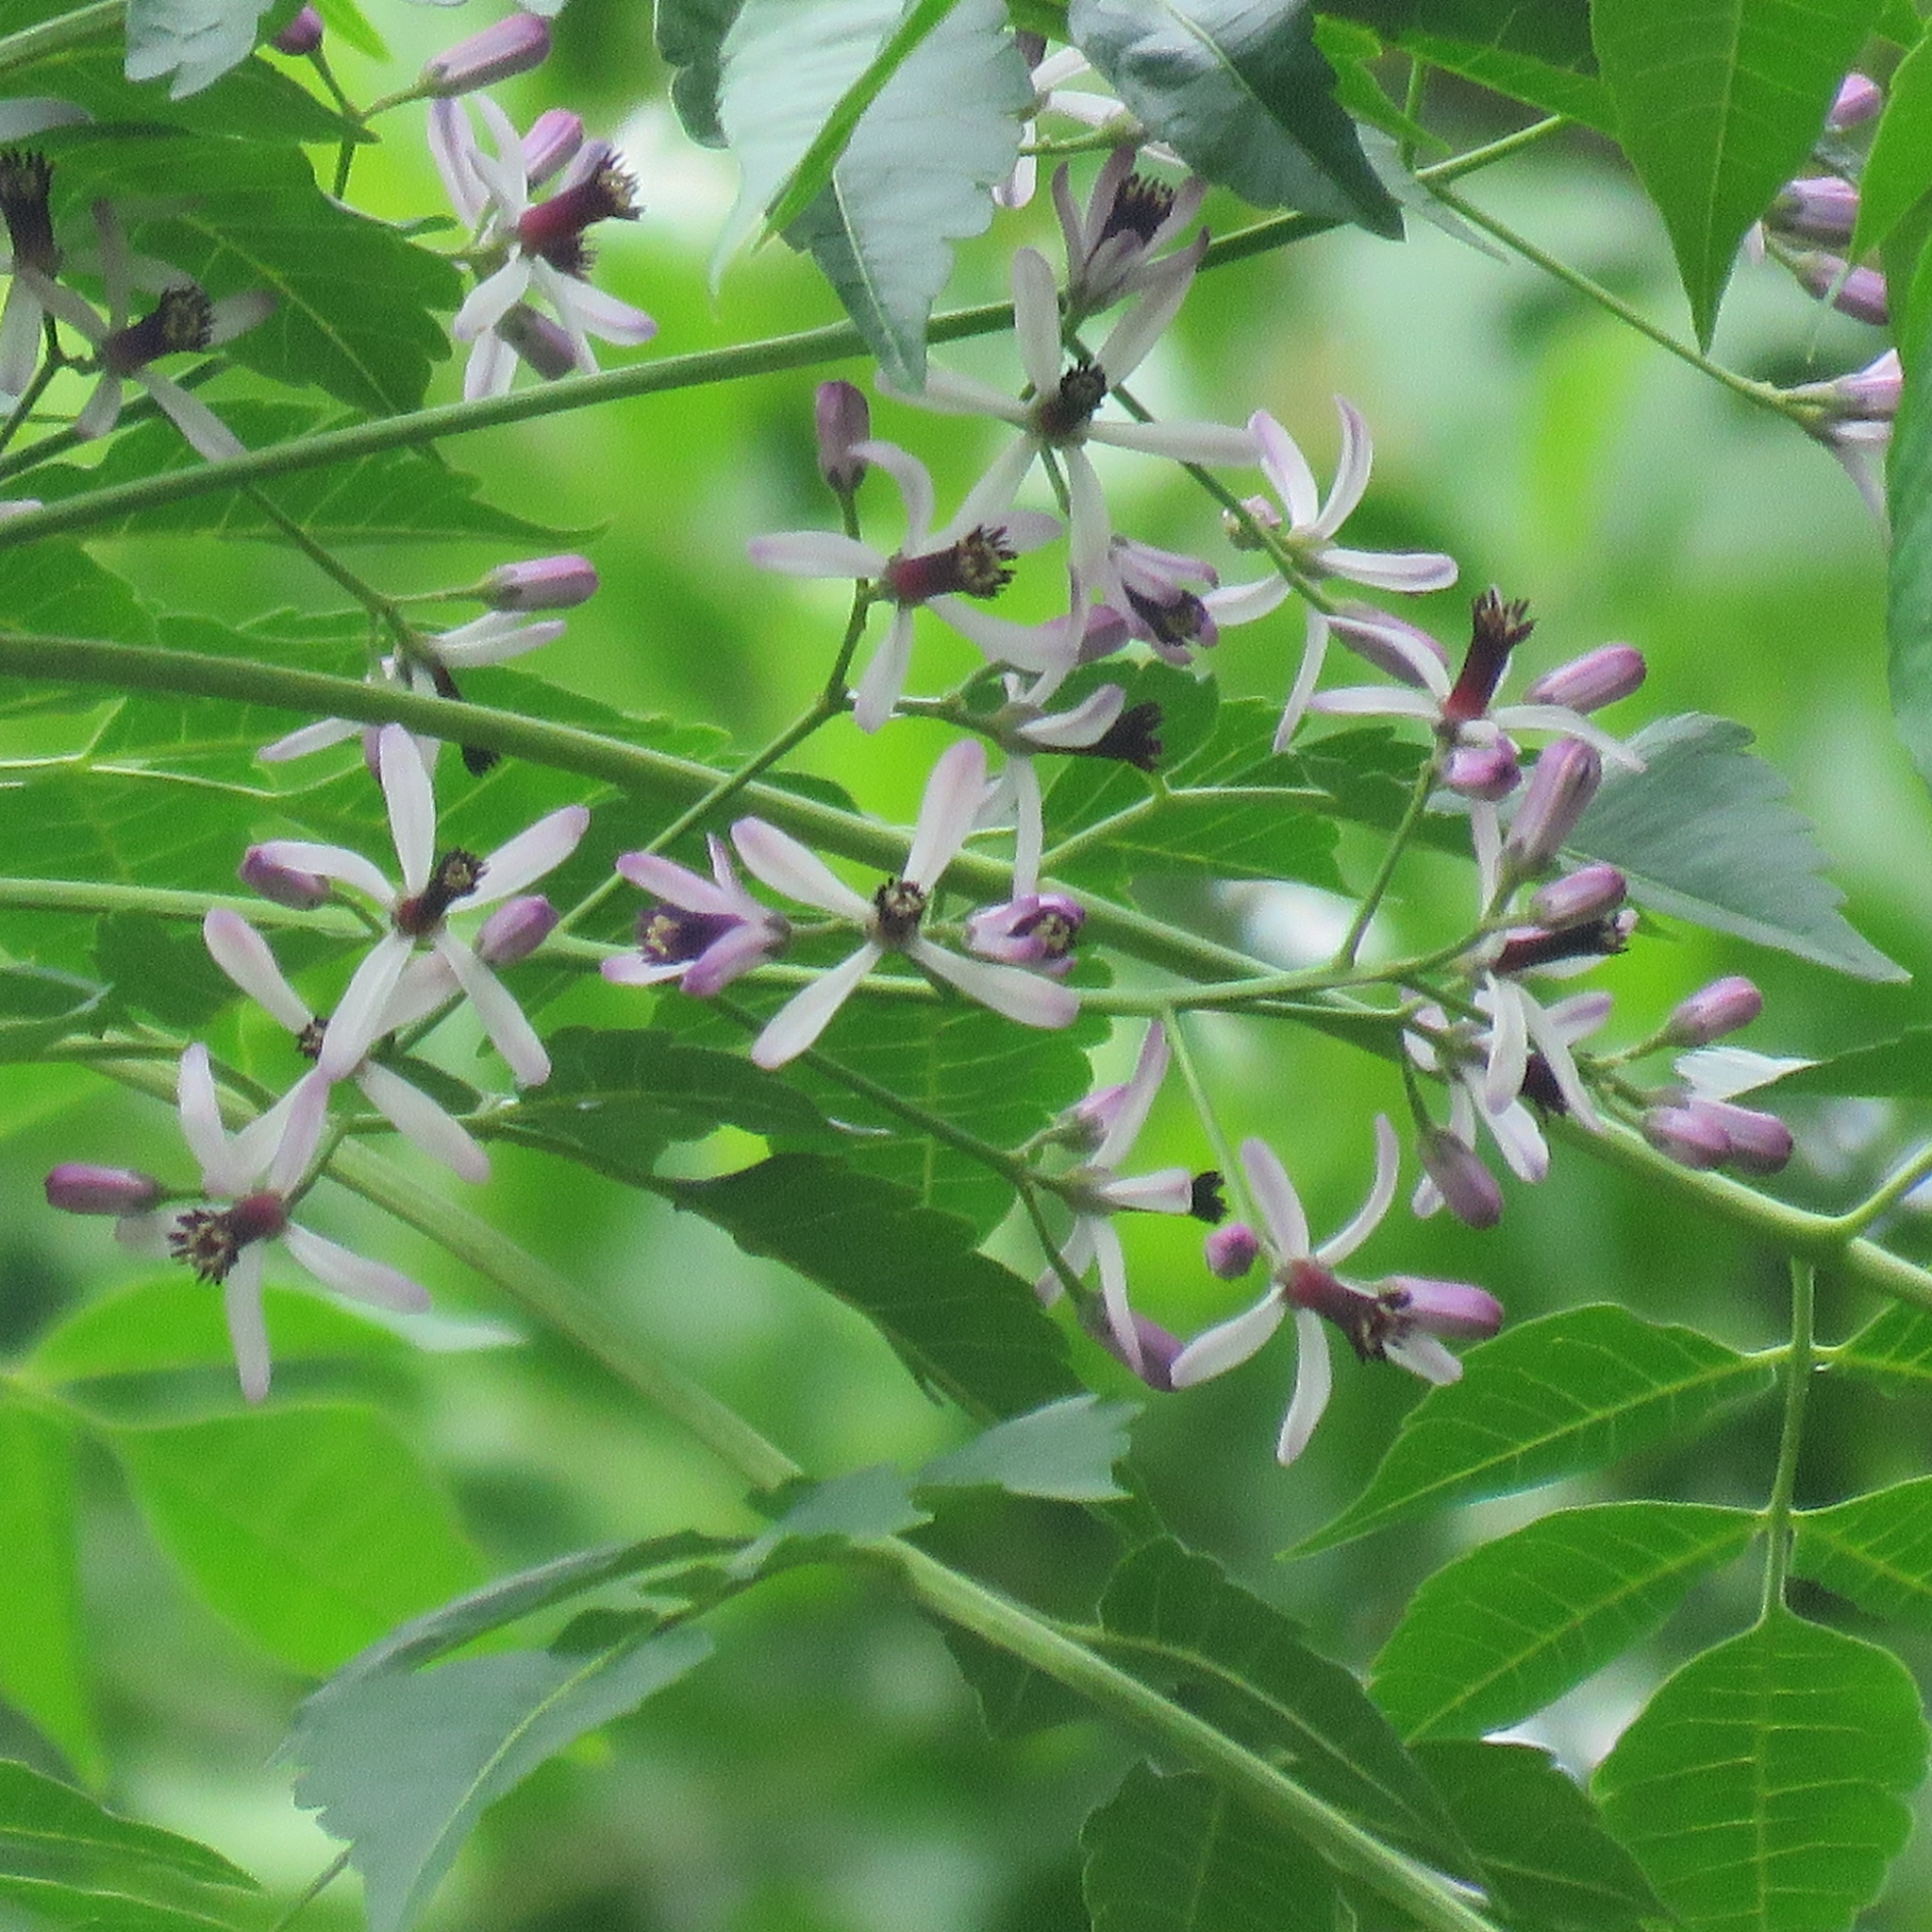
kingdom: Plantae
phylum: Tracheophyta
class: Magnoliopsida
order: Sapindales
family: Meliaceae
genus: Melia
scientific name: Melia azedarach
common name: Chinaberrytree
